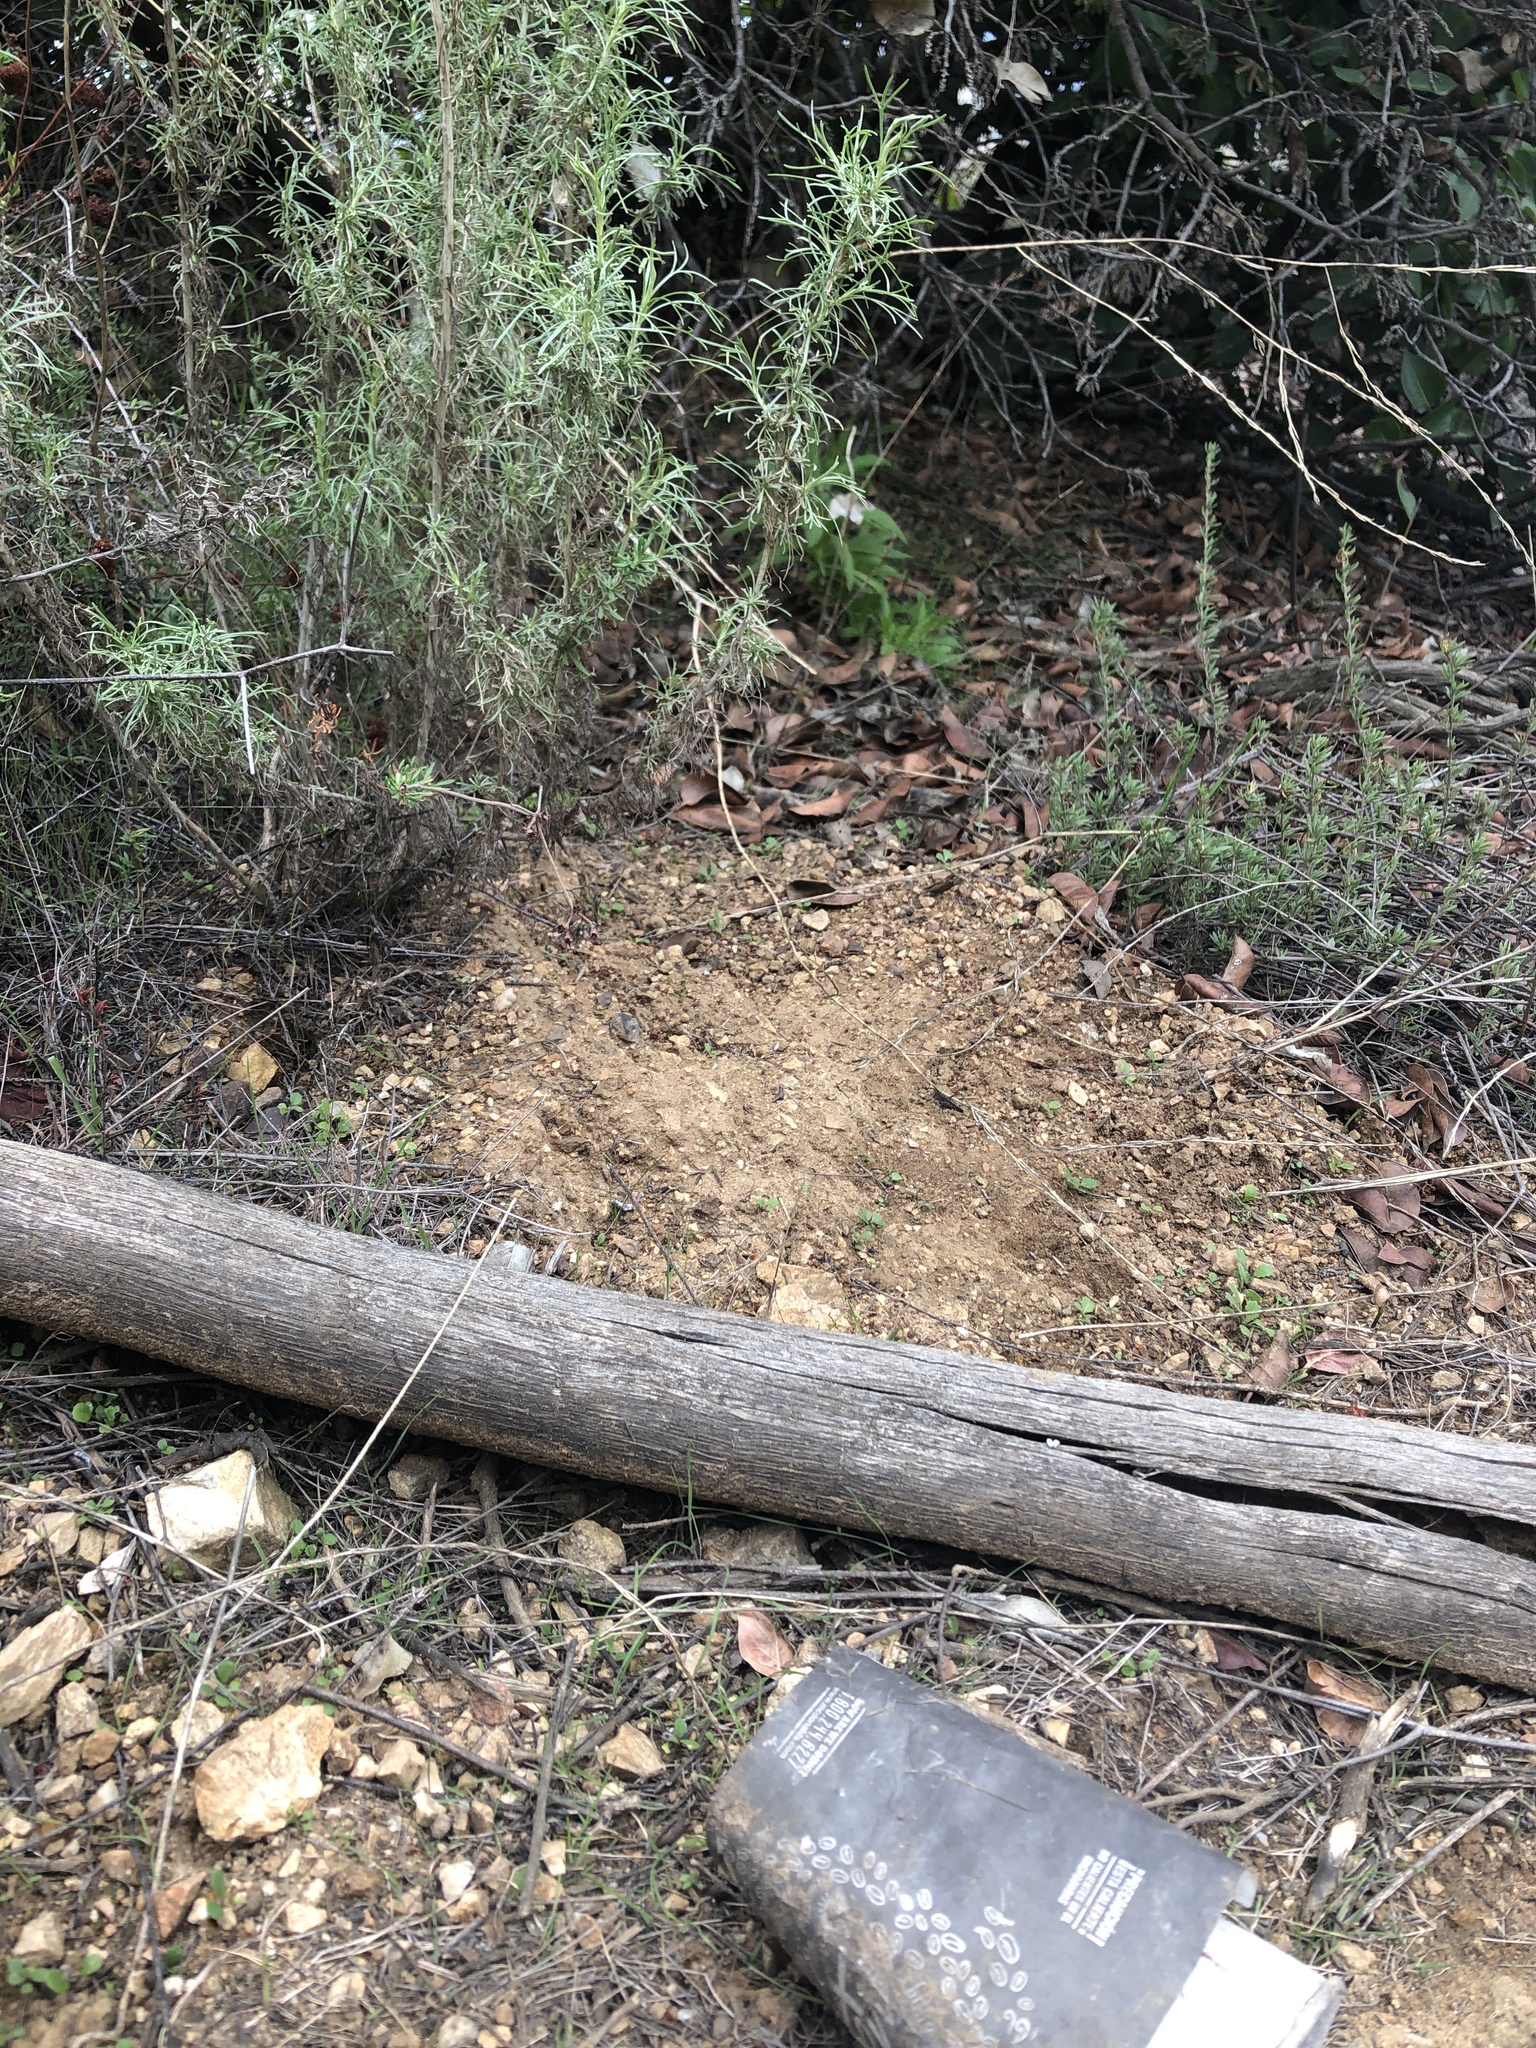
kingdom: Plantae
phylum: Tracheophyta
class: Magnoliopsida
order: Asterales
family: Asteraceae
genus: Artemisia
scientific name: Artemisia californica
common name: California sagebrush
